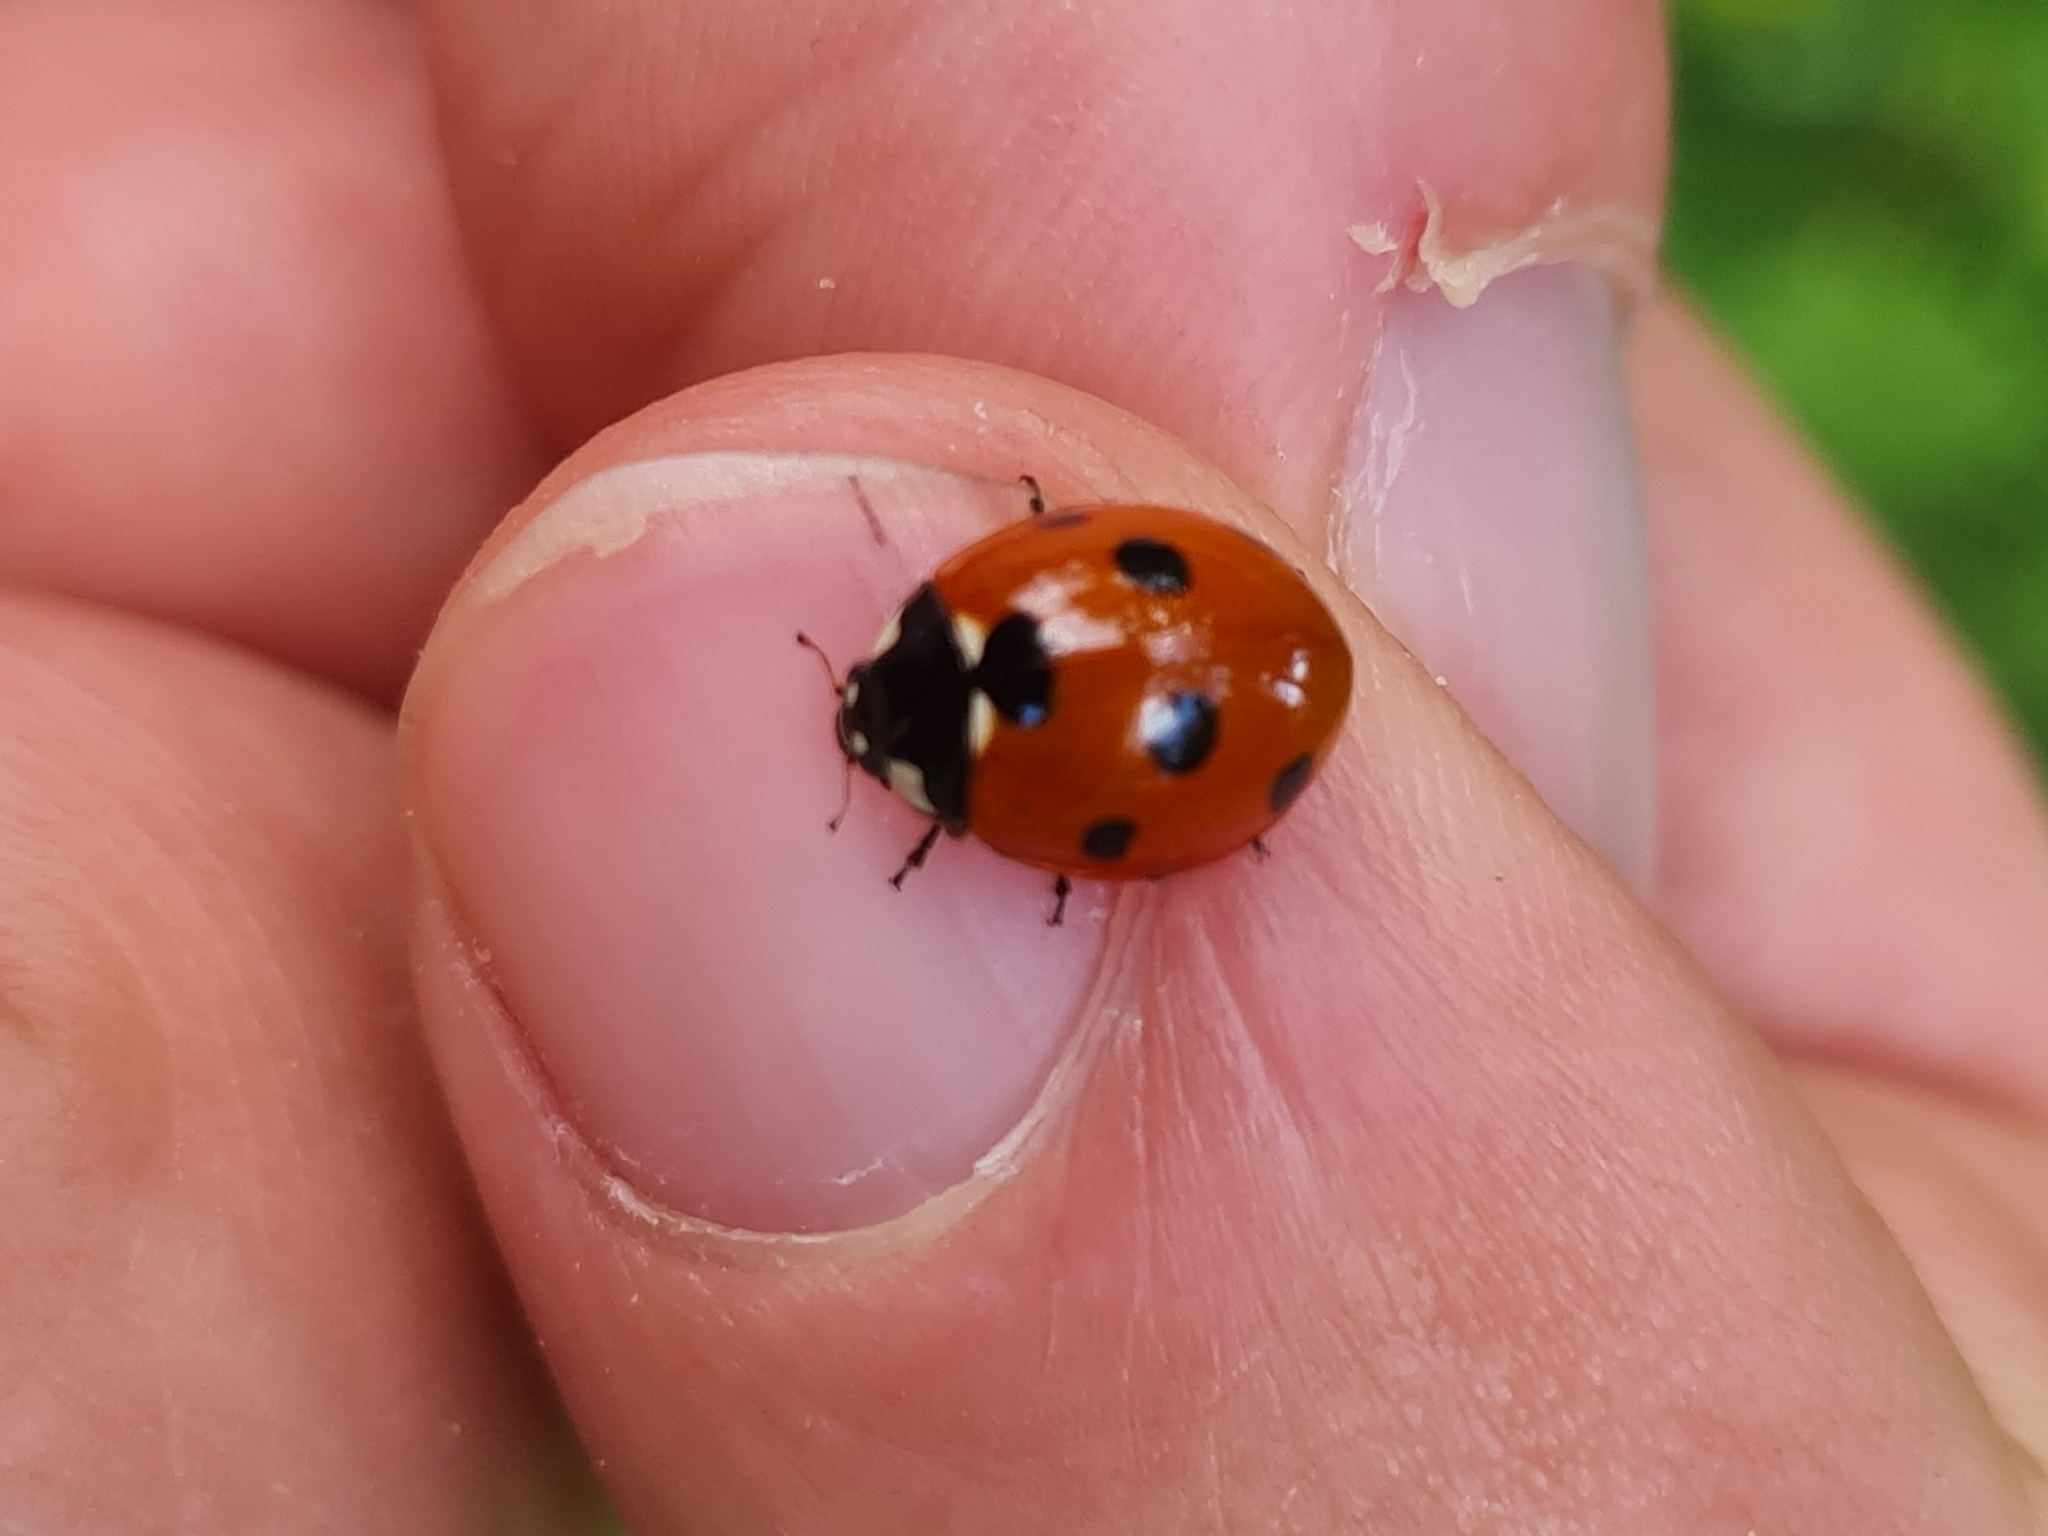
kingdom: Animalia
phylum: Arthropoda
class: Insecta
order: Coleoptera
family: Coccinellidae
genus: Coccinella
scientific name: Coccinella septempunctata
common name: Sevenspotted lady beetle
